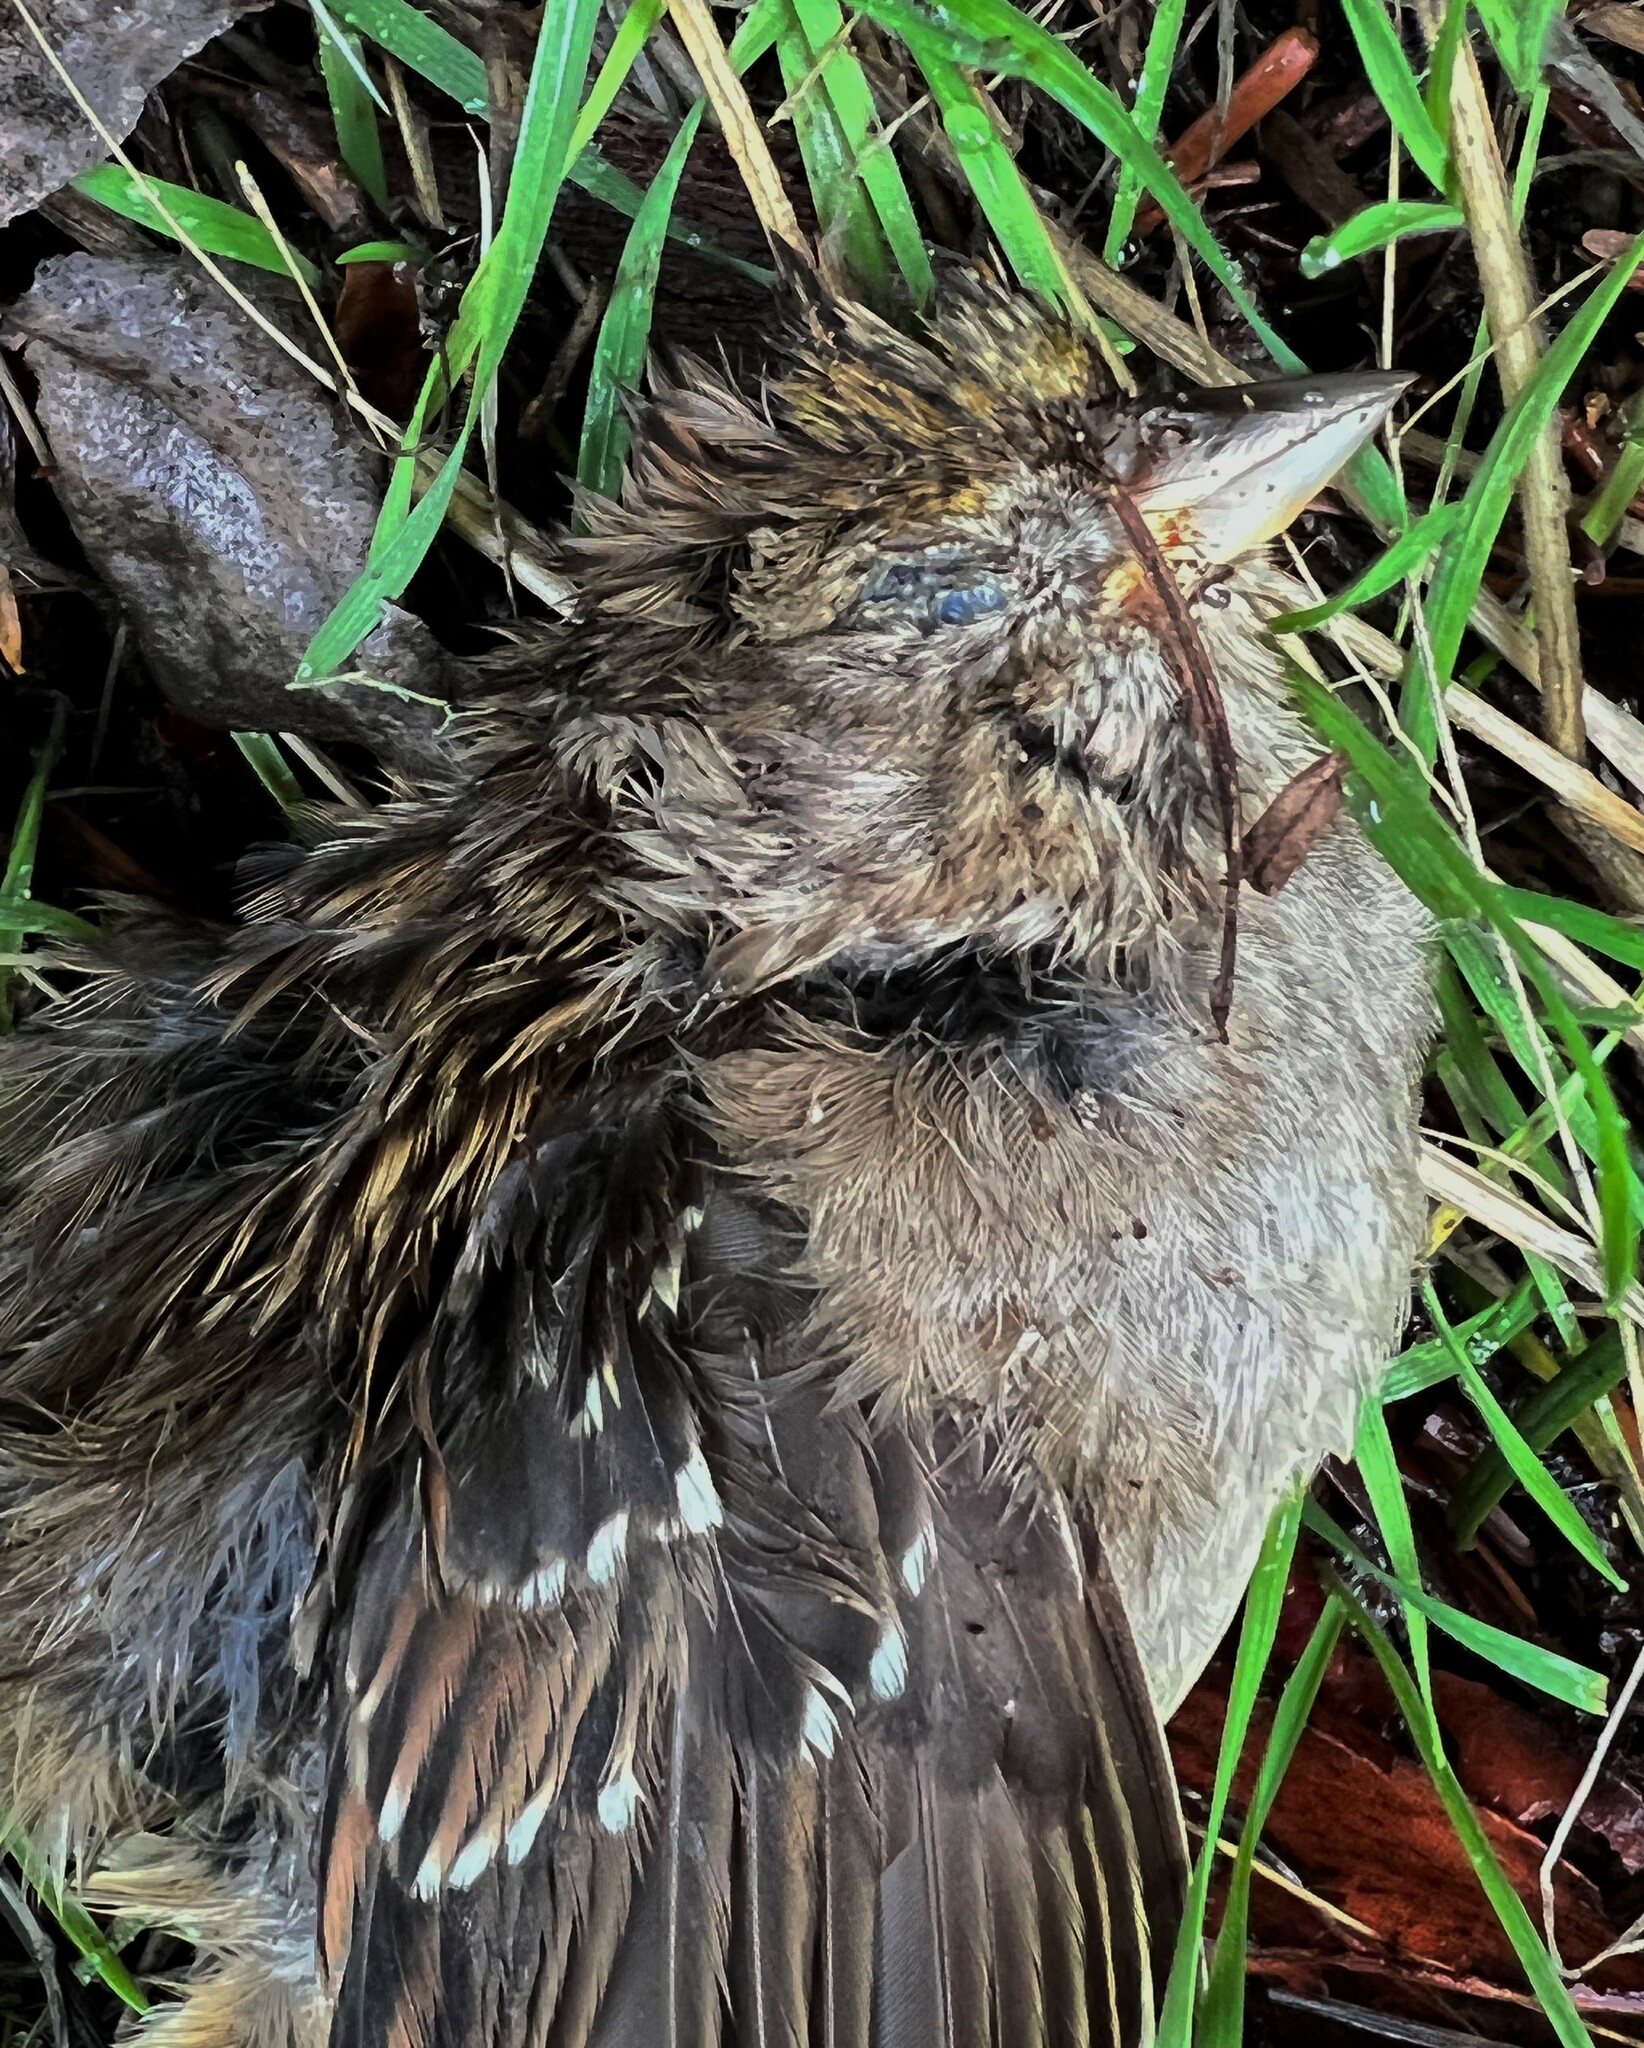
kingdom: Animalia
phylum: Chordata
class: Aves
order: Passeriformes
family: Passerellidae
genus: Zonotrichia
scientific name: Zonotrichia atricapilla
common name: Golden-crowned sparrow
